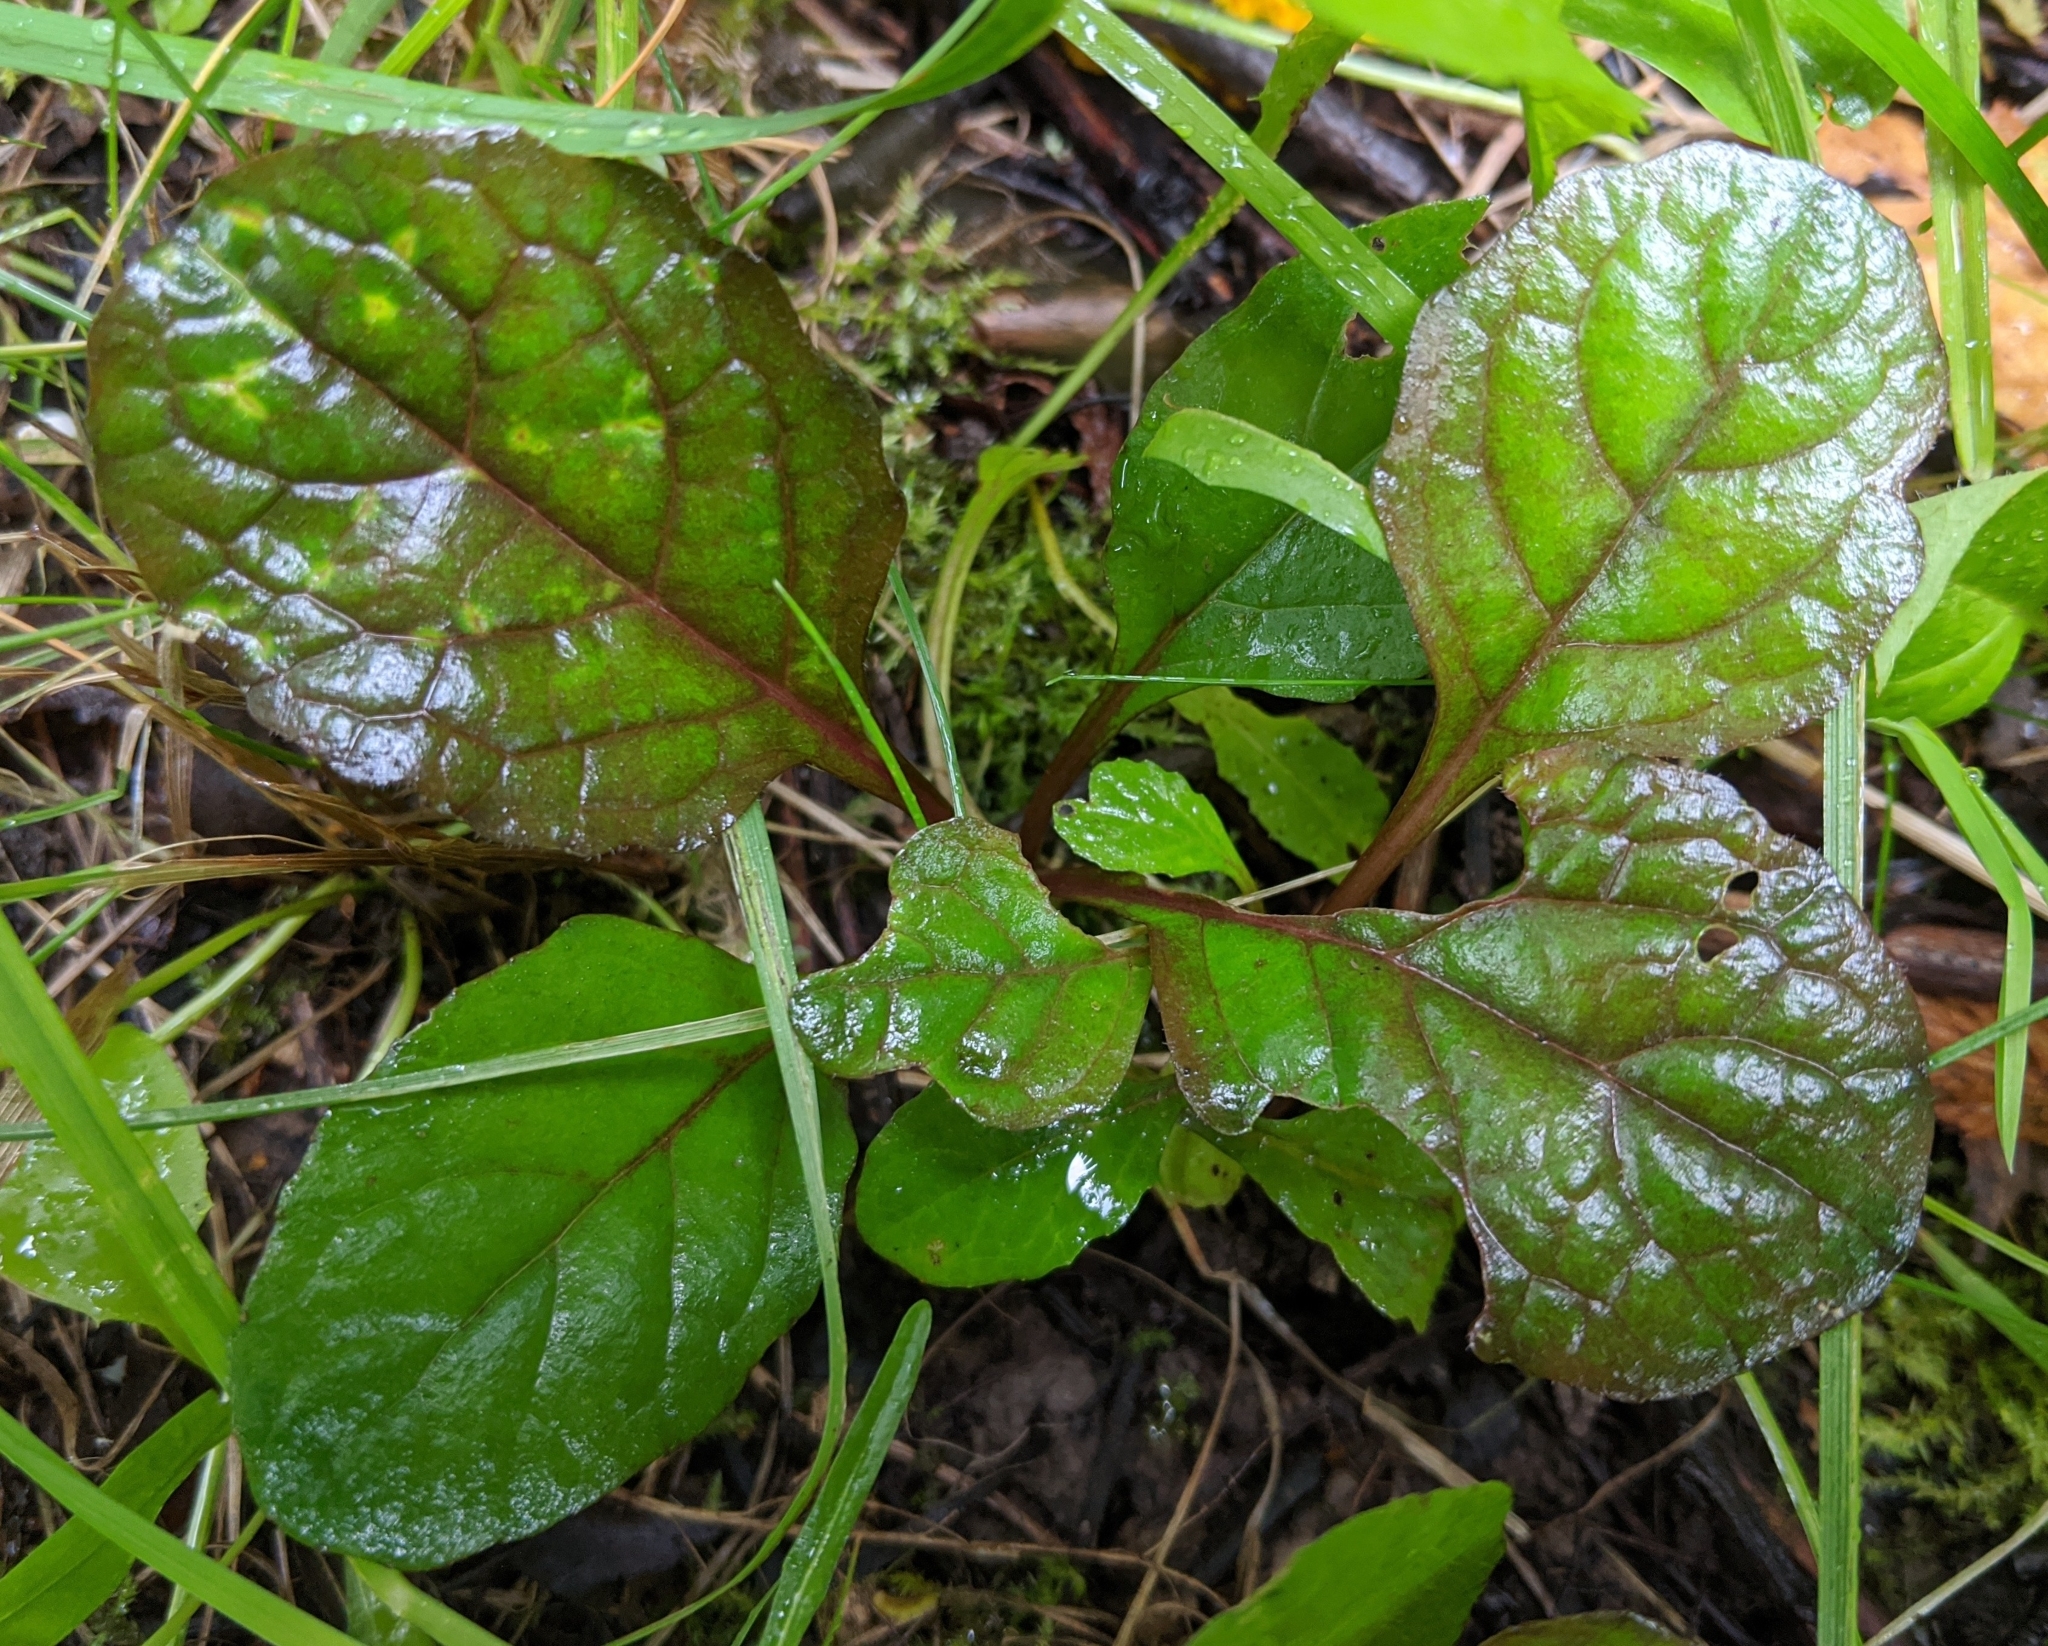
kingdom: Plantae
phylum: Tracheophyta
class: Magnoliopsida
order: Lamiales
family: Lamiaceae
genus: Ajuga
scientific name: Ajuga reptans
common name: Bugle
